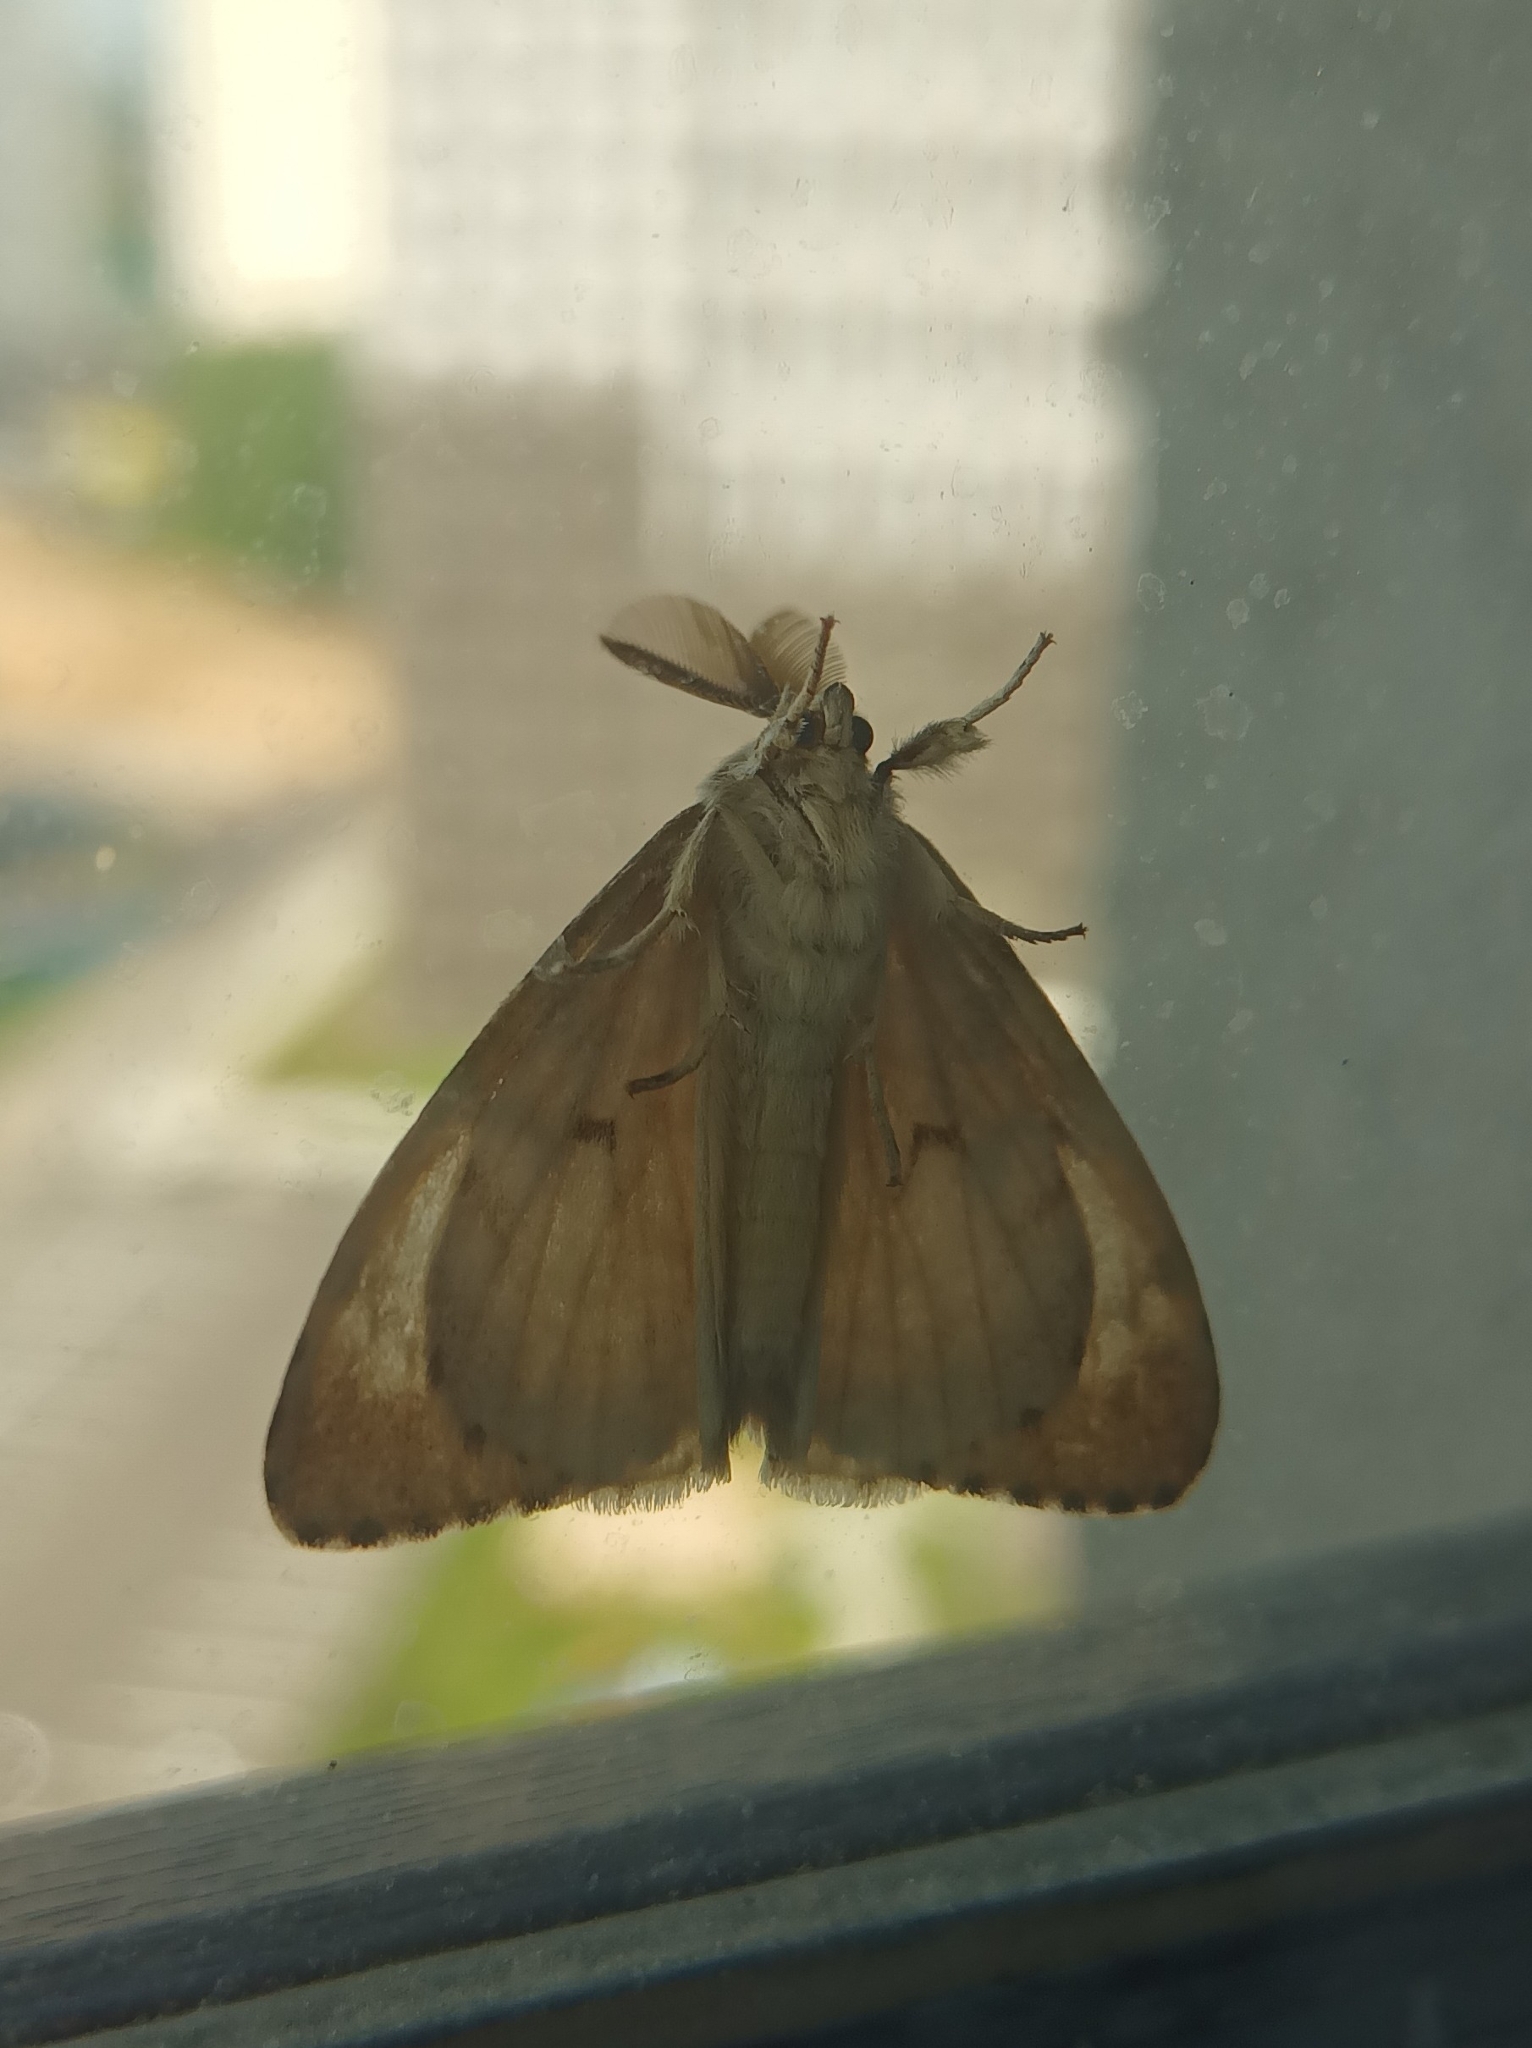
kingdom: Animalia
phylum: Arthropoda
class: Insecta
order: Lepidoptera
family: Erebidae
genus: Lymantria
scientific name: Lymantria dispar
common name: Gypsy moth
